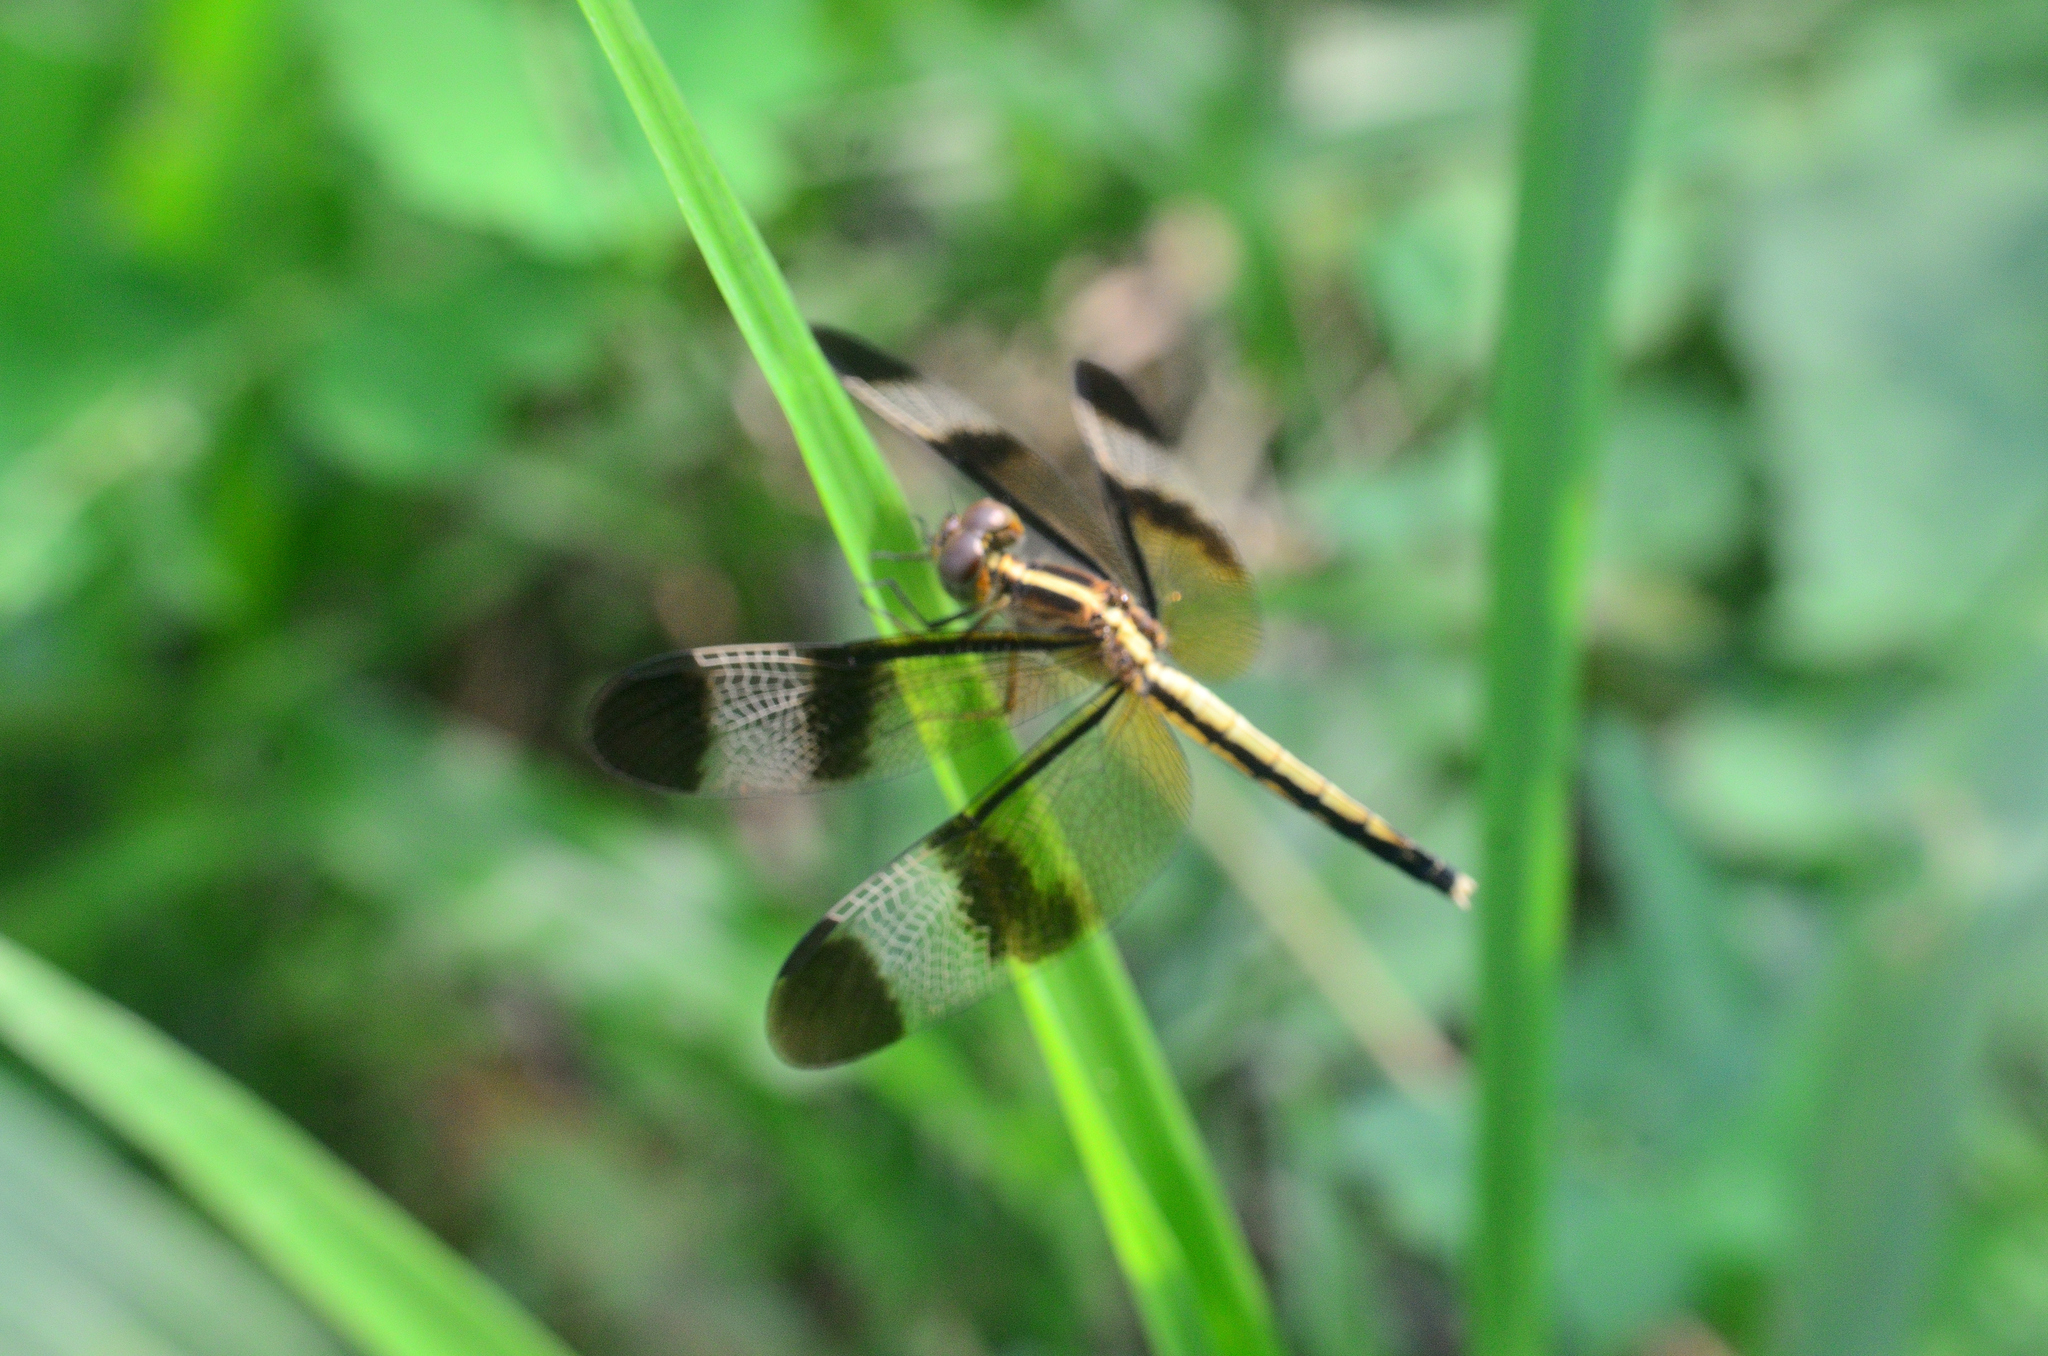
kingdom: Animalia
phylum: Arthropoda
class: Insecta
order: Odonata
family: Libellulidae
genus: Neurothemis
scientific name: Neurothemis tullia
